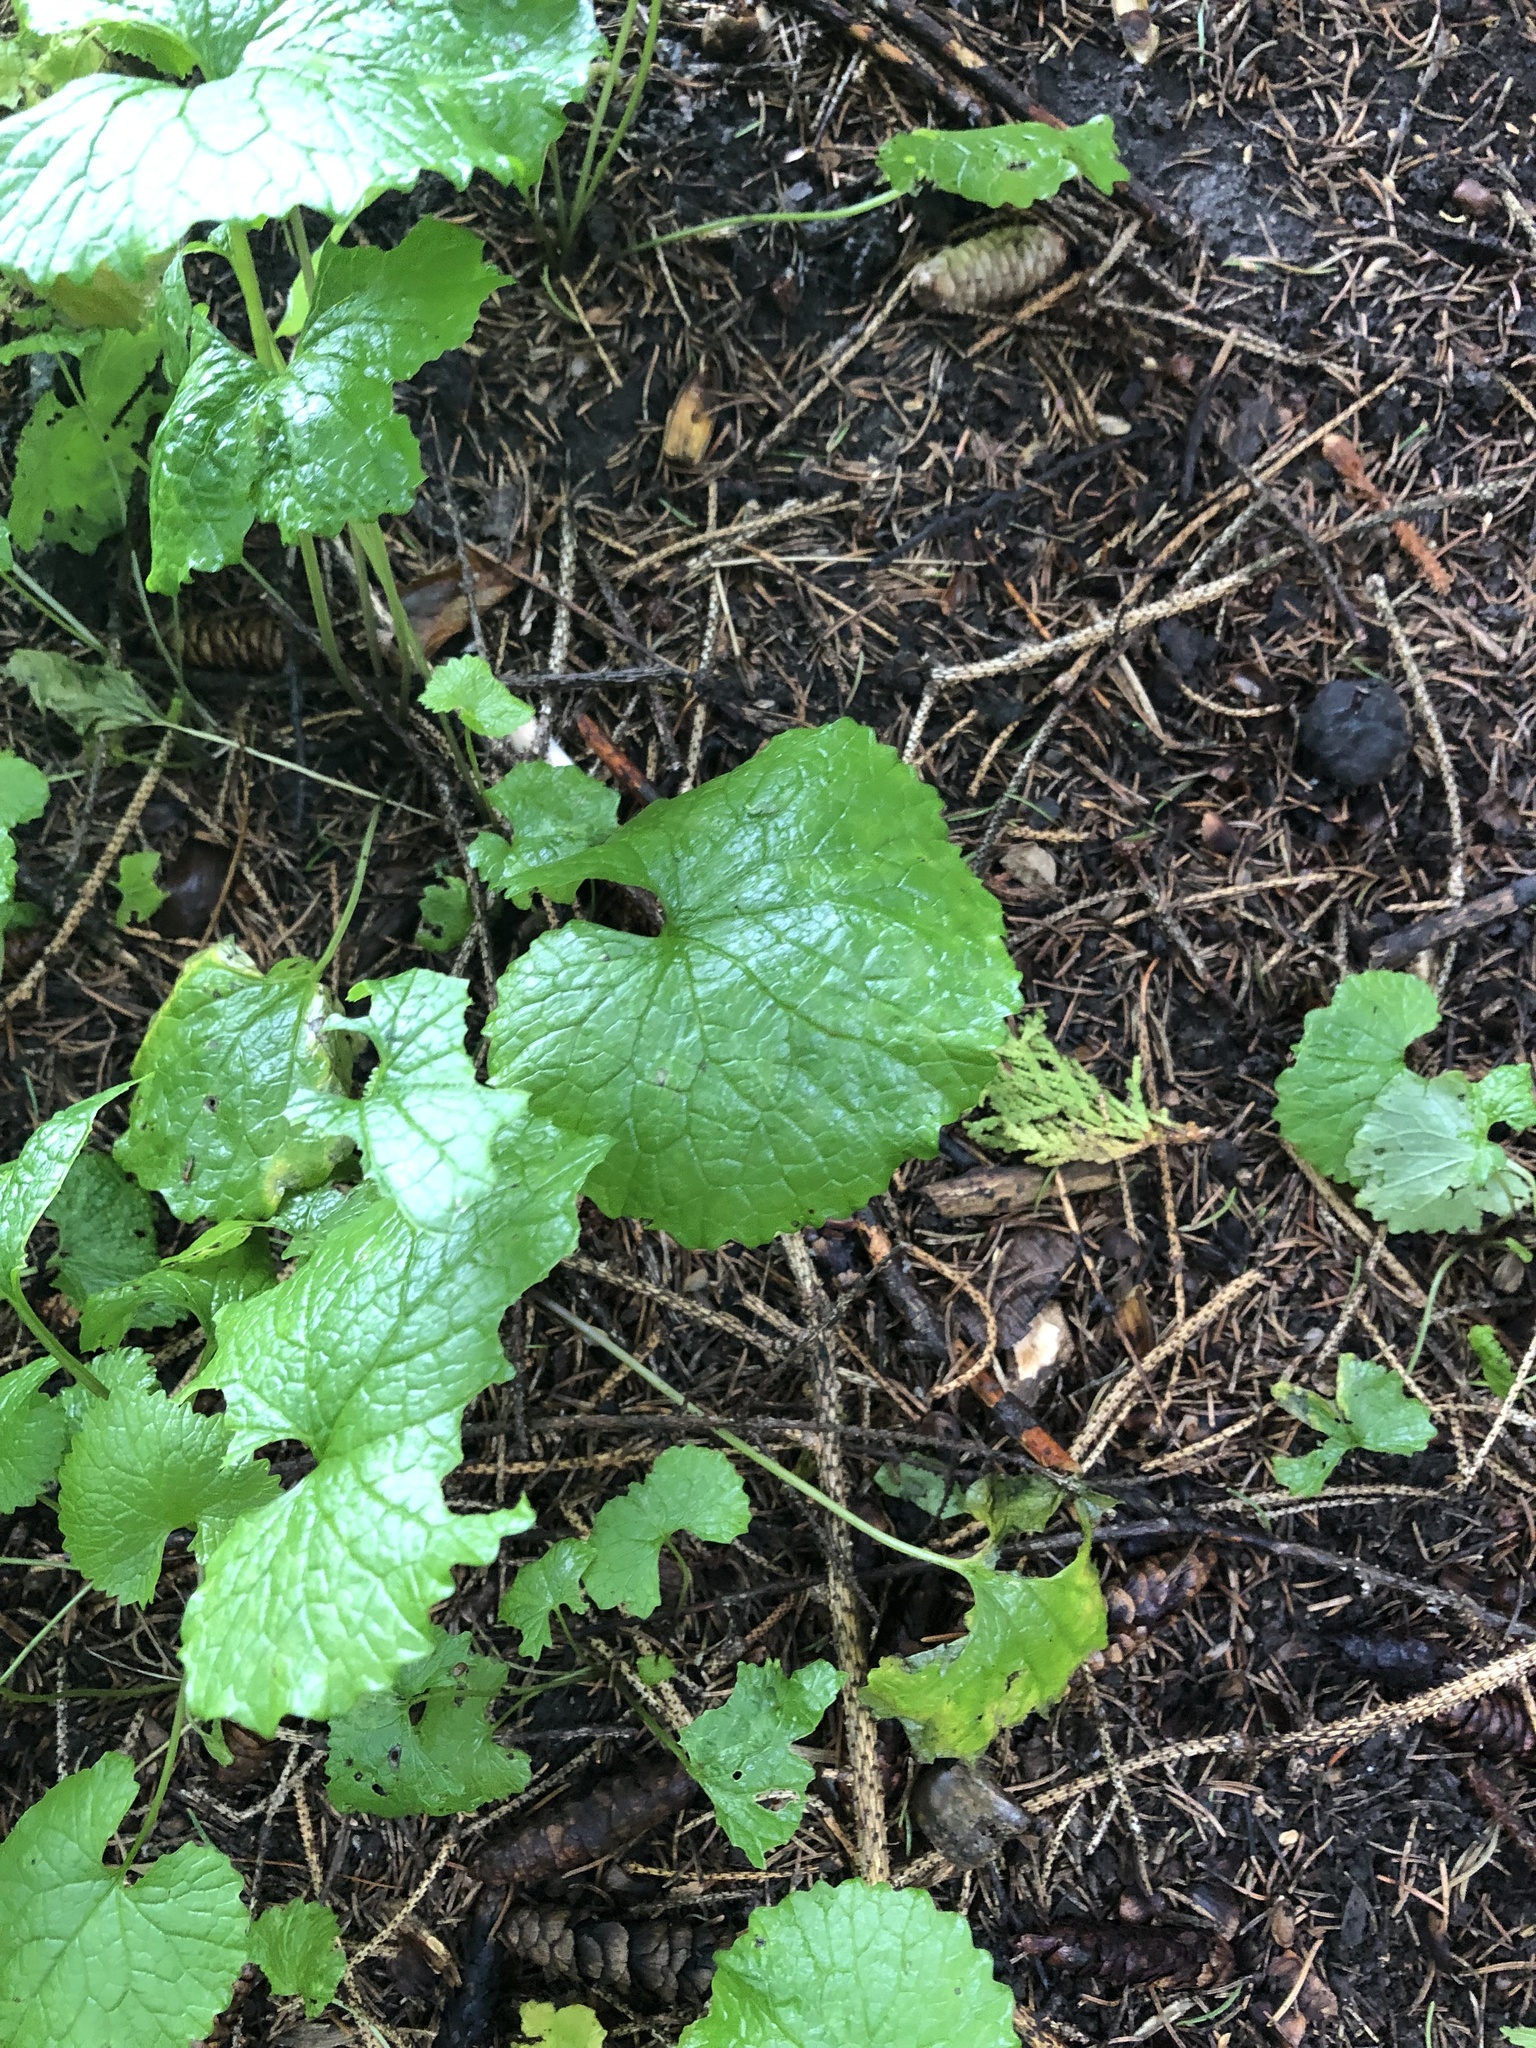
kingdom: Plantae
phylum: Tracheophyta
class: Magnoliopsida
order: Brassicales
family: Brassicaceae
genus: Alliaria
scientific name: Alliaria petiolata
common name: Garlic mustard
